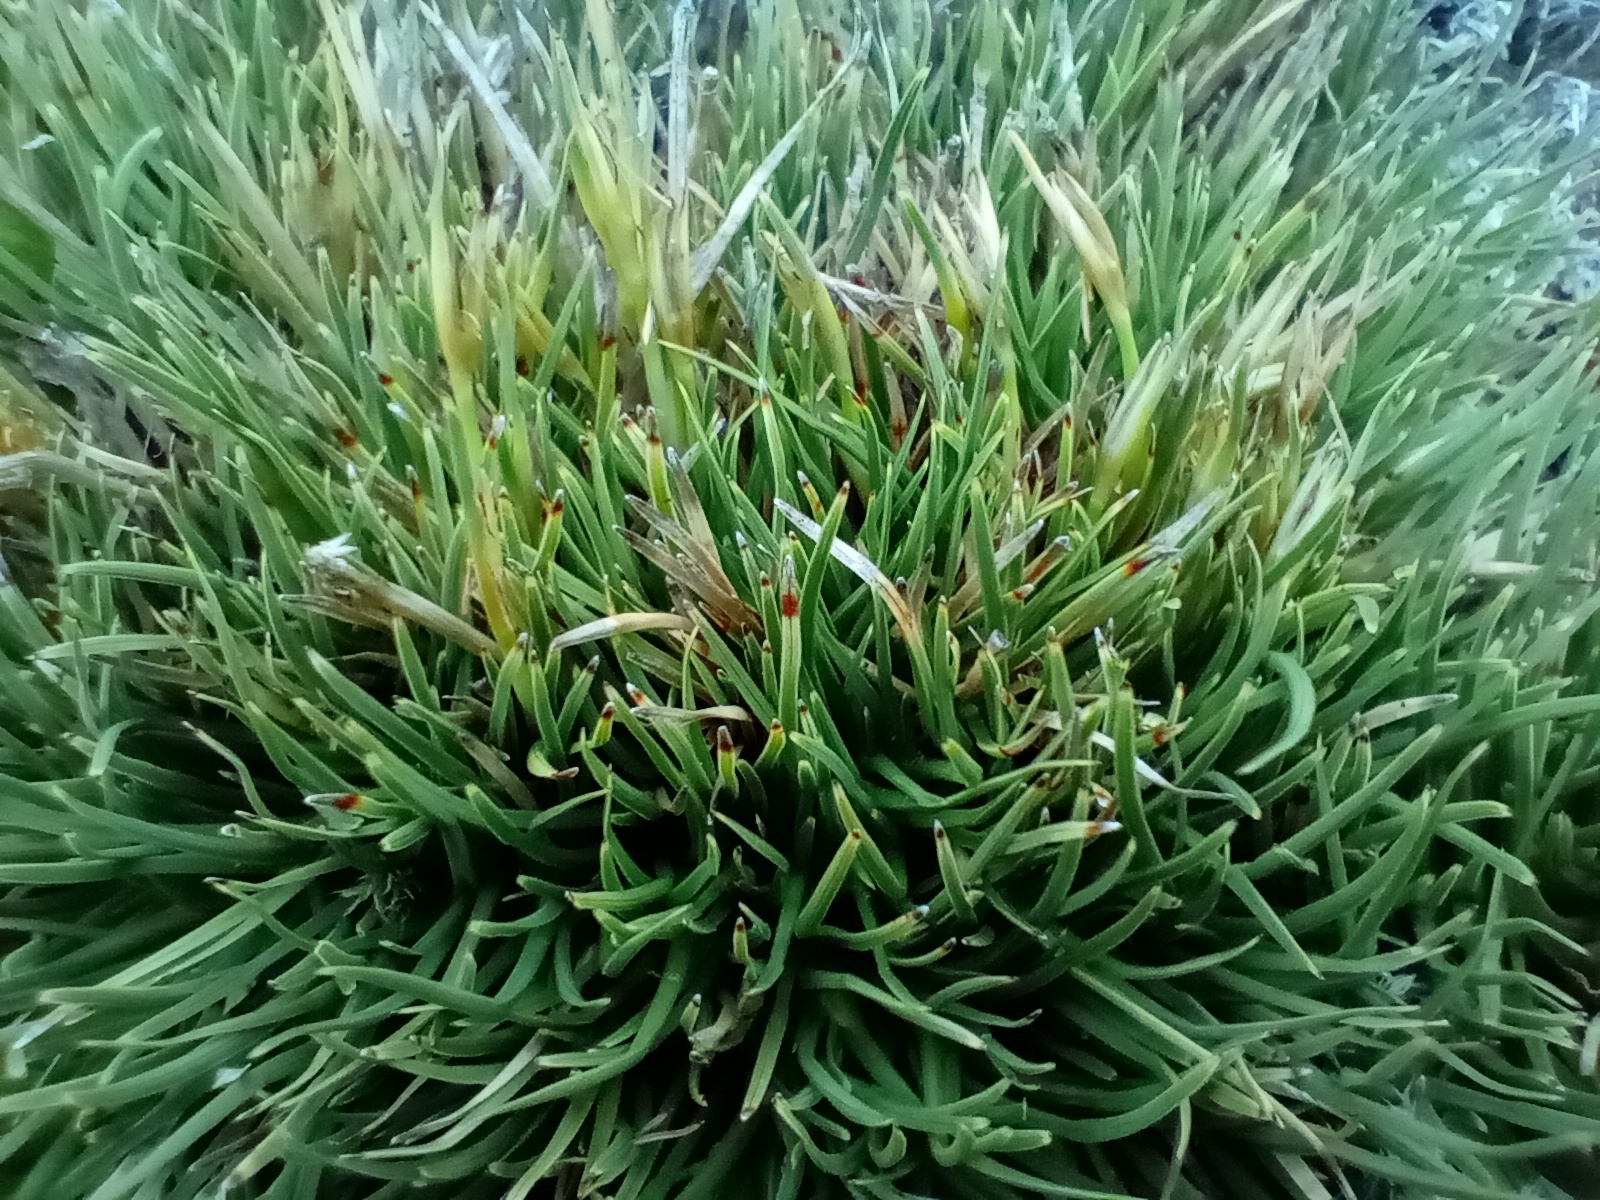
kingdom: Plantae
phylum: Tracheophyta
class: Liliopsida
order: Poales
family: Cyperaceae
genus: Oreobolus
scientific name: Oreobolus pectinatus
